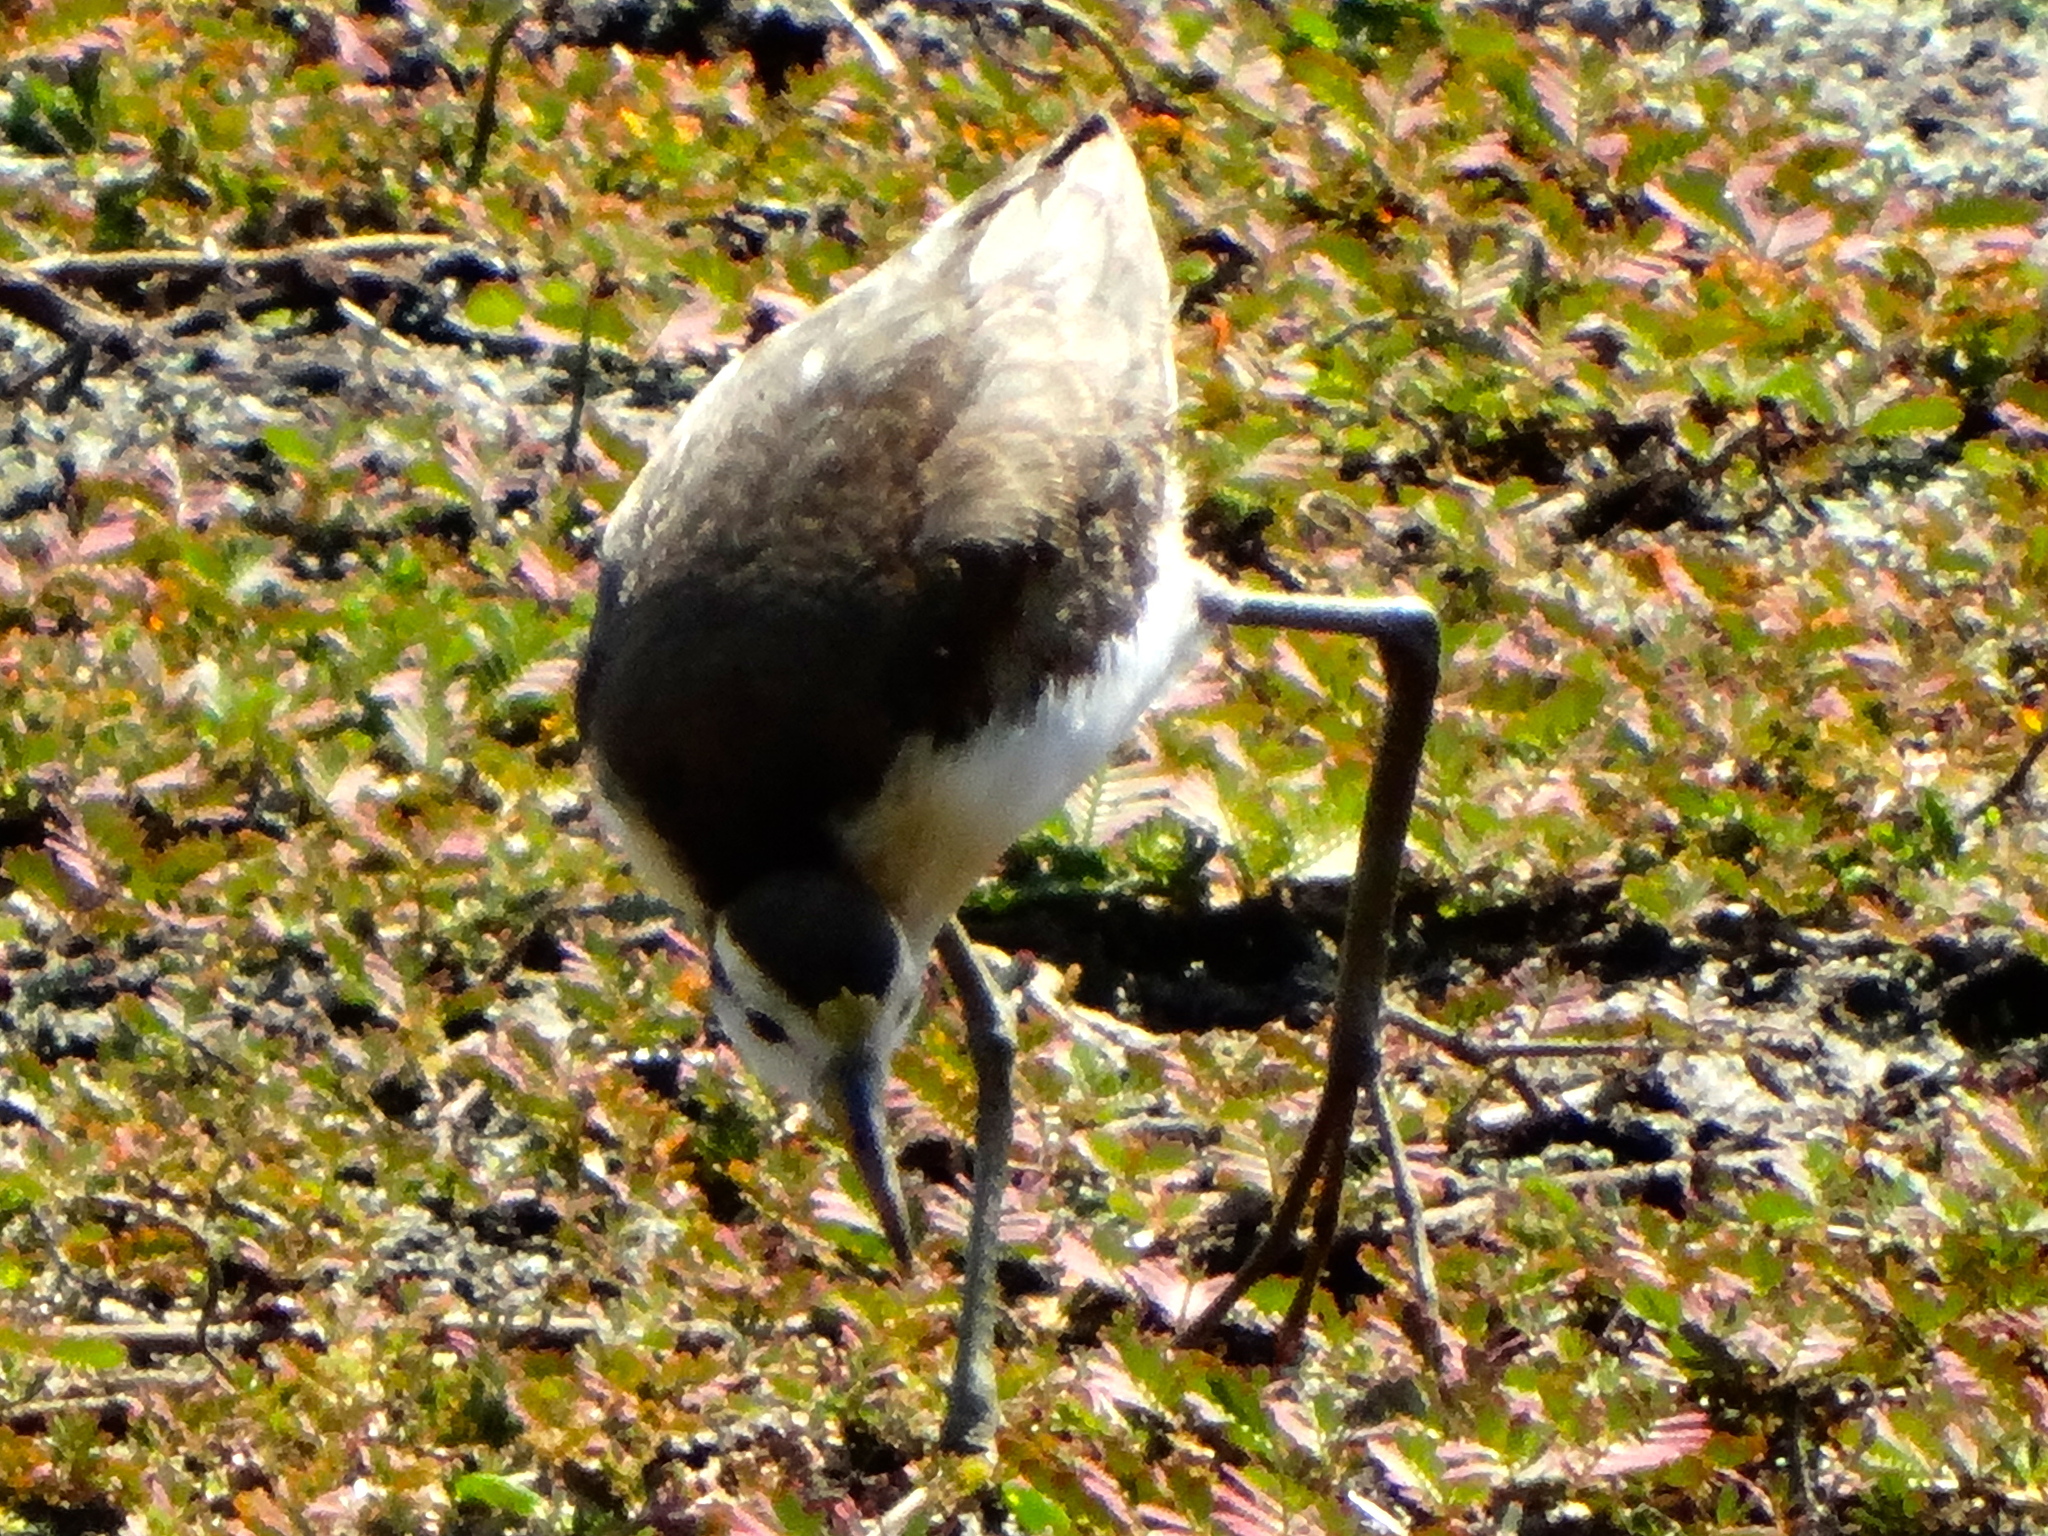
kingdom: Animalia
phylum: Chordata
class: Aves
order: Charadriiformes
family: Jacanidae
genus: Jacana
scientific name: Jacana spinosa
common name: Northern jacana
